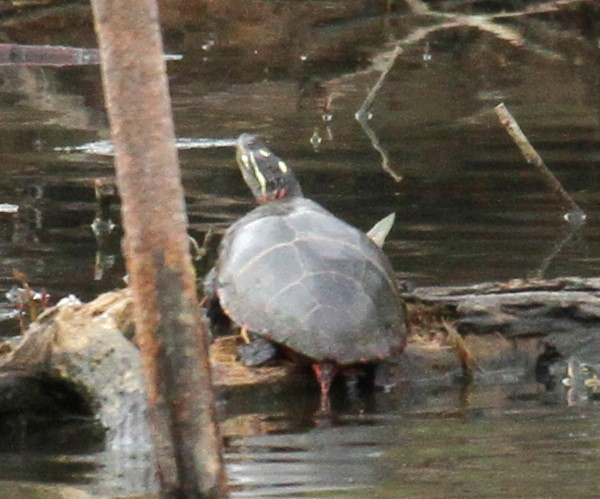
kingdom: Animalia
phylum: Chordata
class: Testudines
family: Emydidae
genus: Chrysemys
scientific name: Chrysemys picta
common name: Painted turtle
